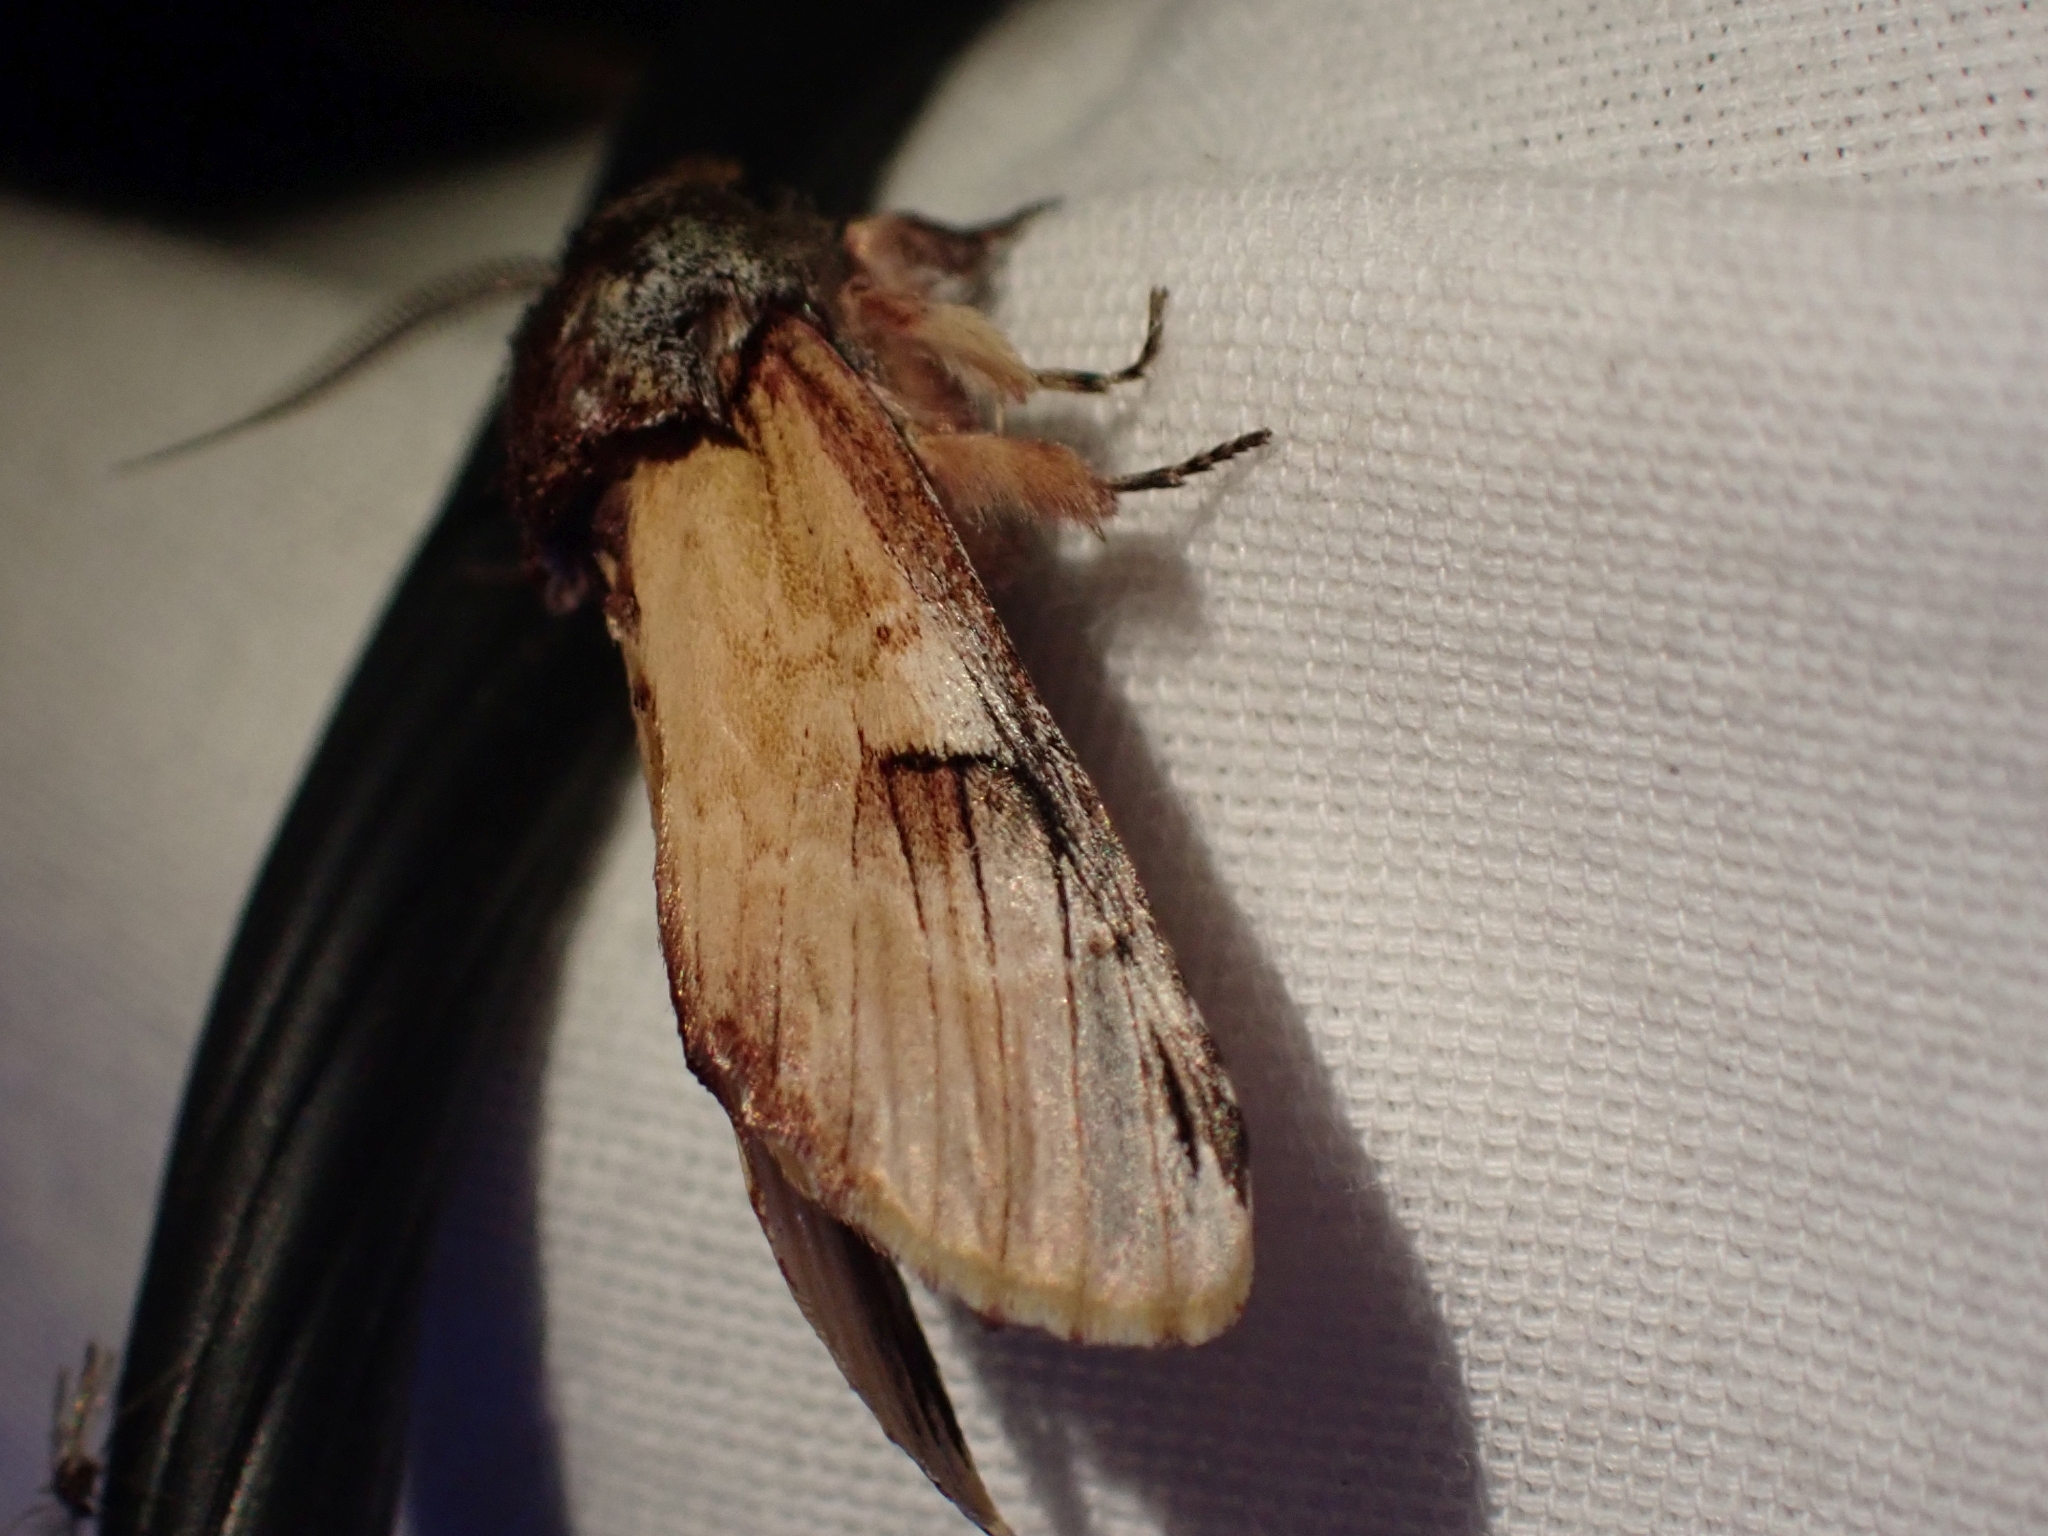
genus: Ianassa
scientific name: Ianassa
